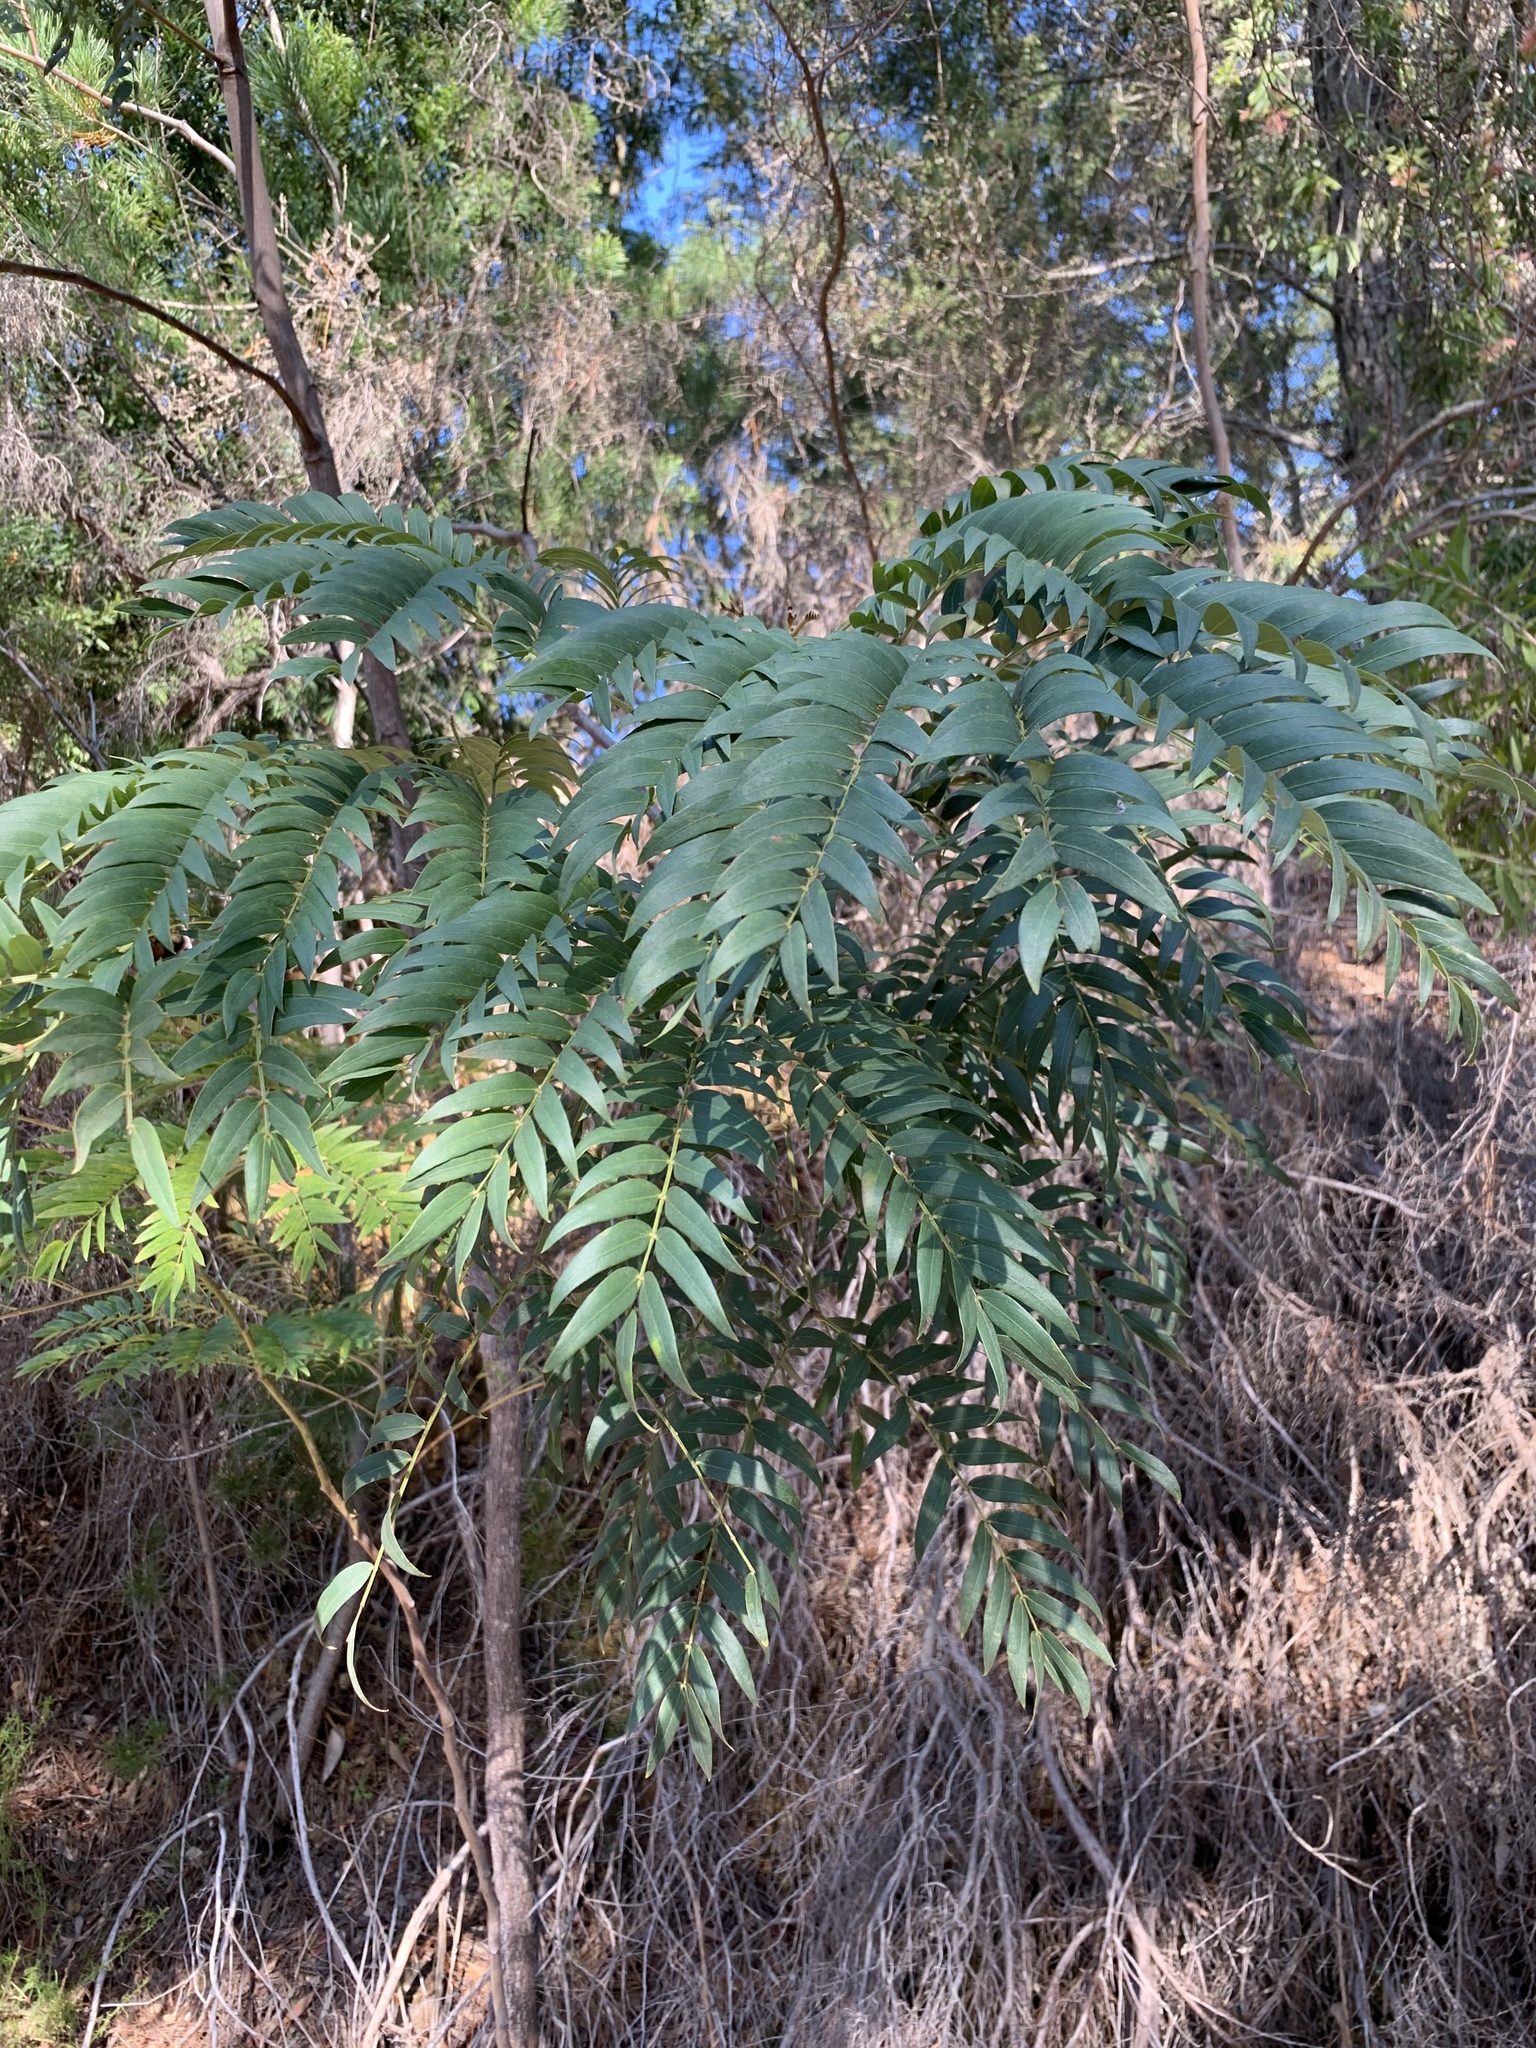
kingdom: Plantae
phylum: Tracheophyta
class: Magnoliopsida
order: Fabales
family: Fabaceae
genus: Acacia
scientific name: Acacia elata
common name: Cedar wattle
